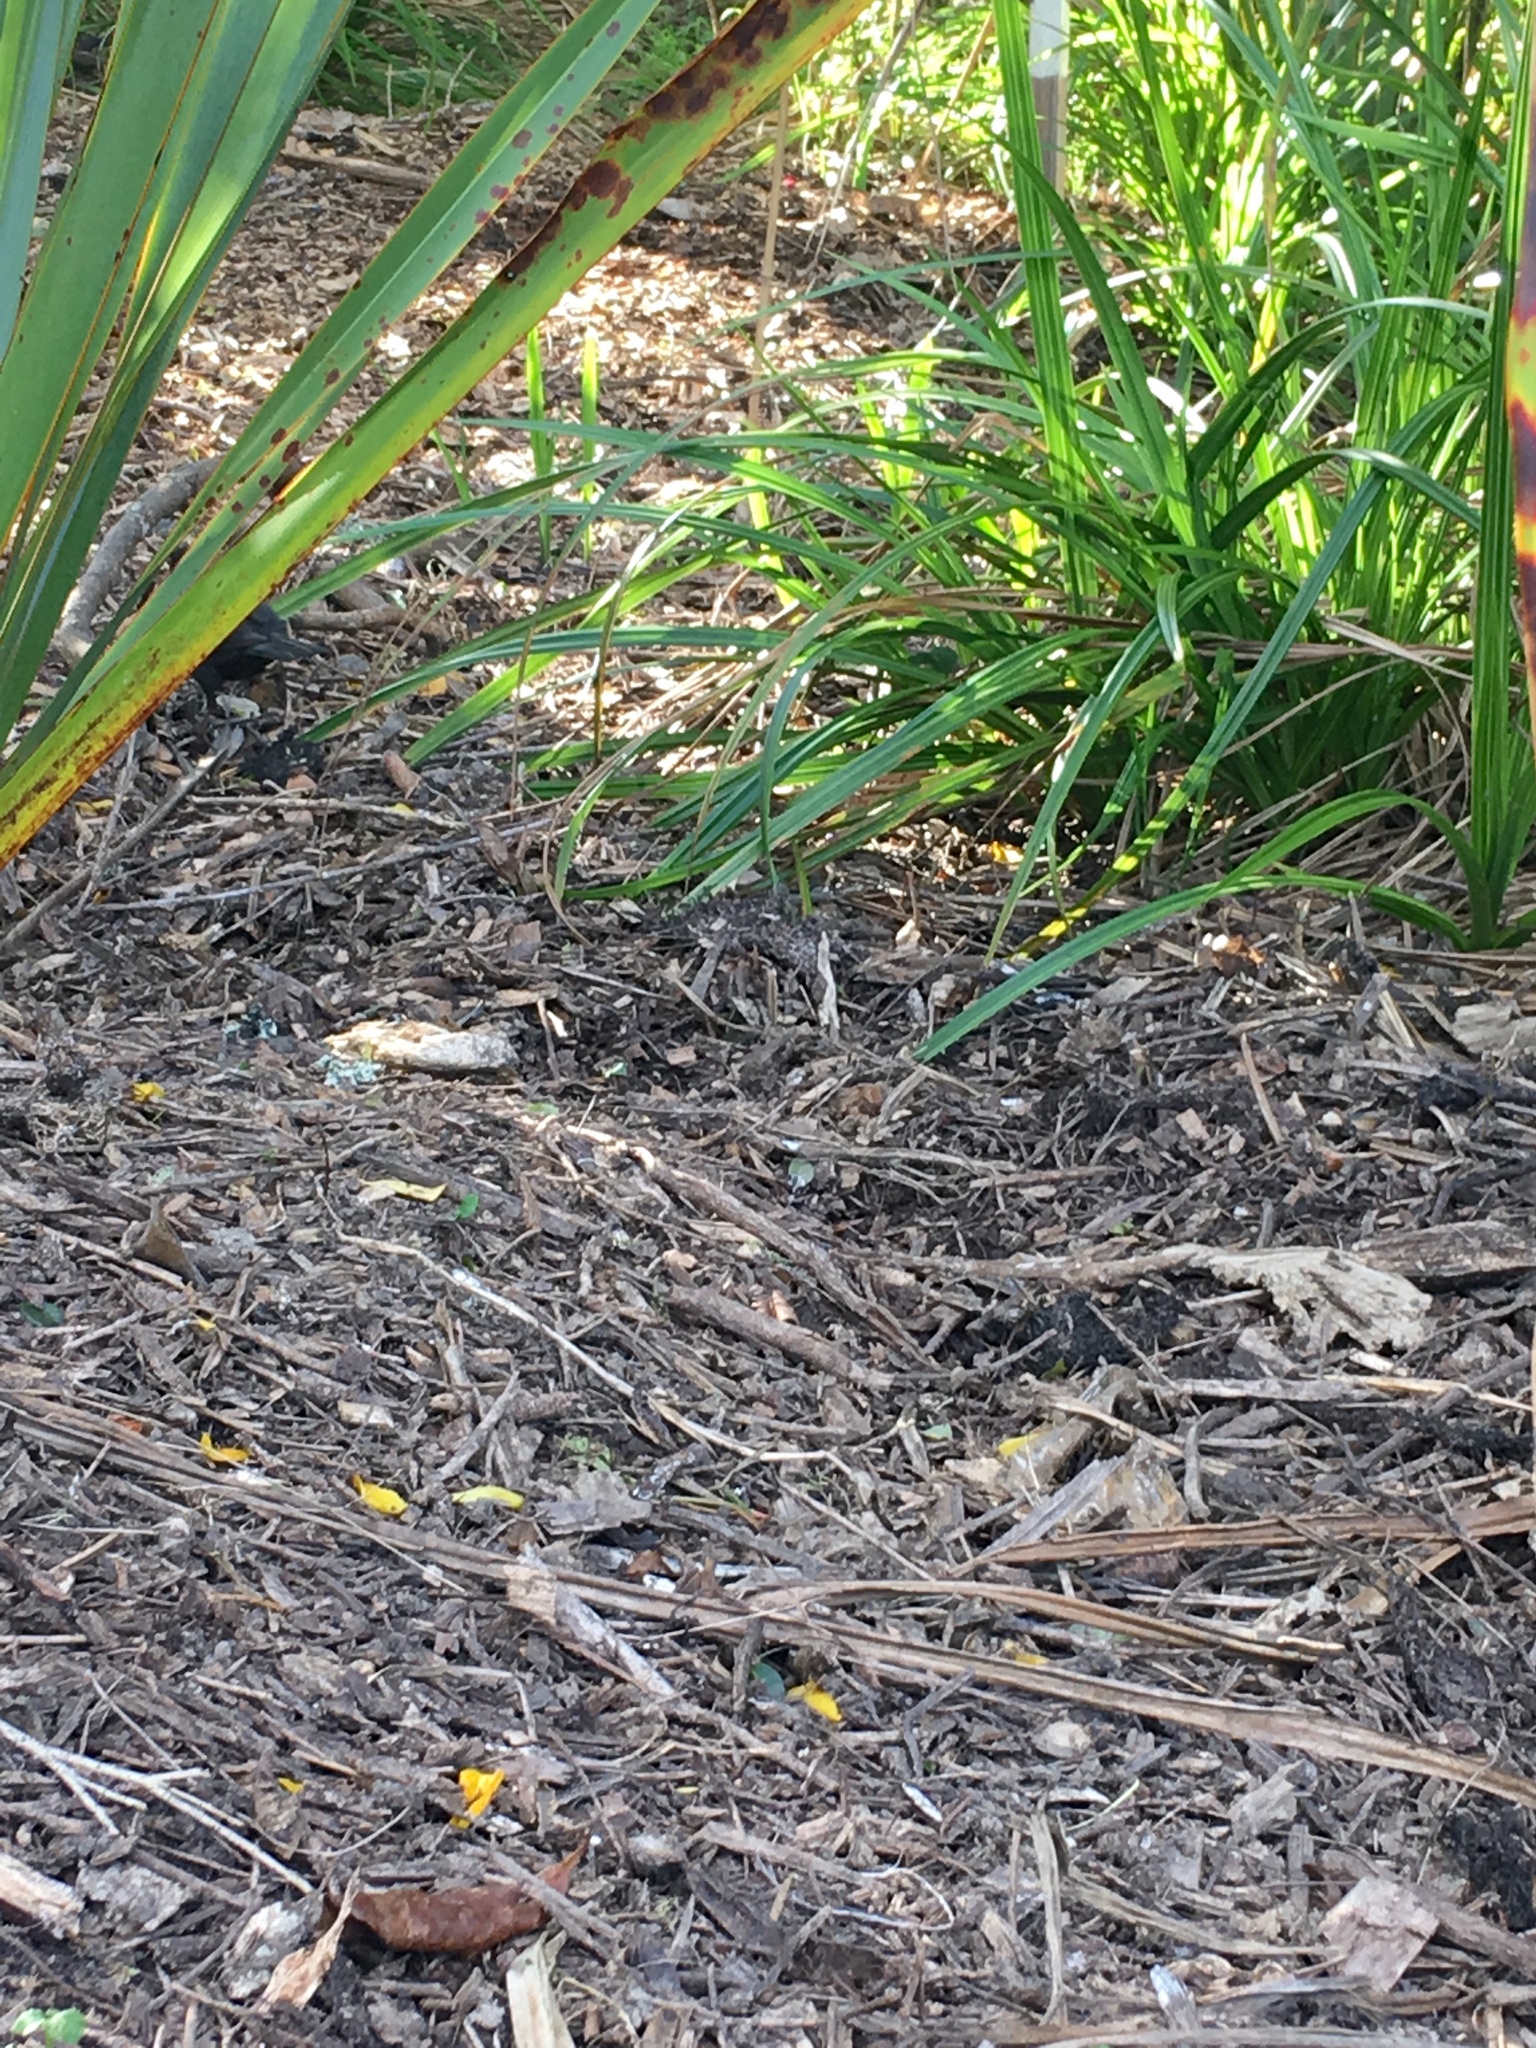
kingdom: Animalia
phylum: Chordata
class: Aves
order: Passeriformes
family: Turdidae
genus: Turdus
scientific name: Turdus merula
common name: Common blackbird
